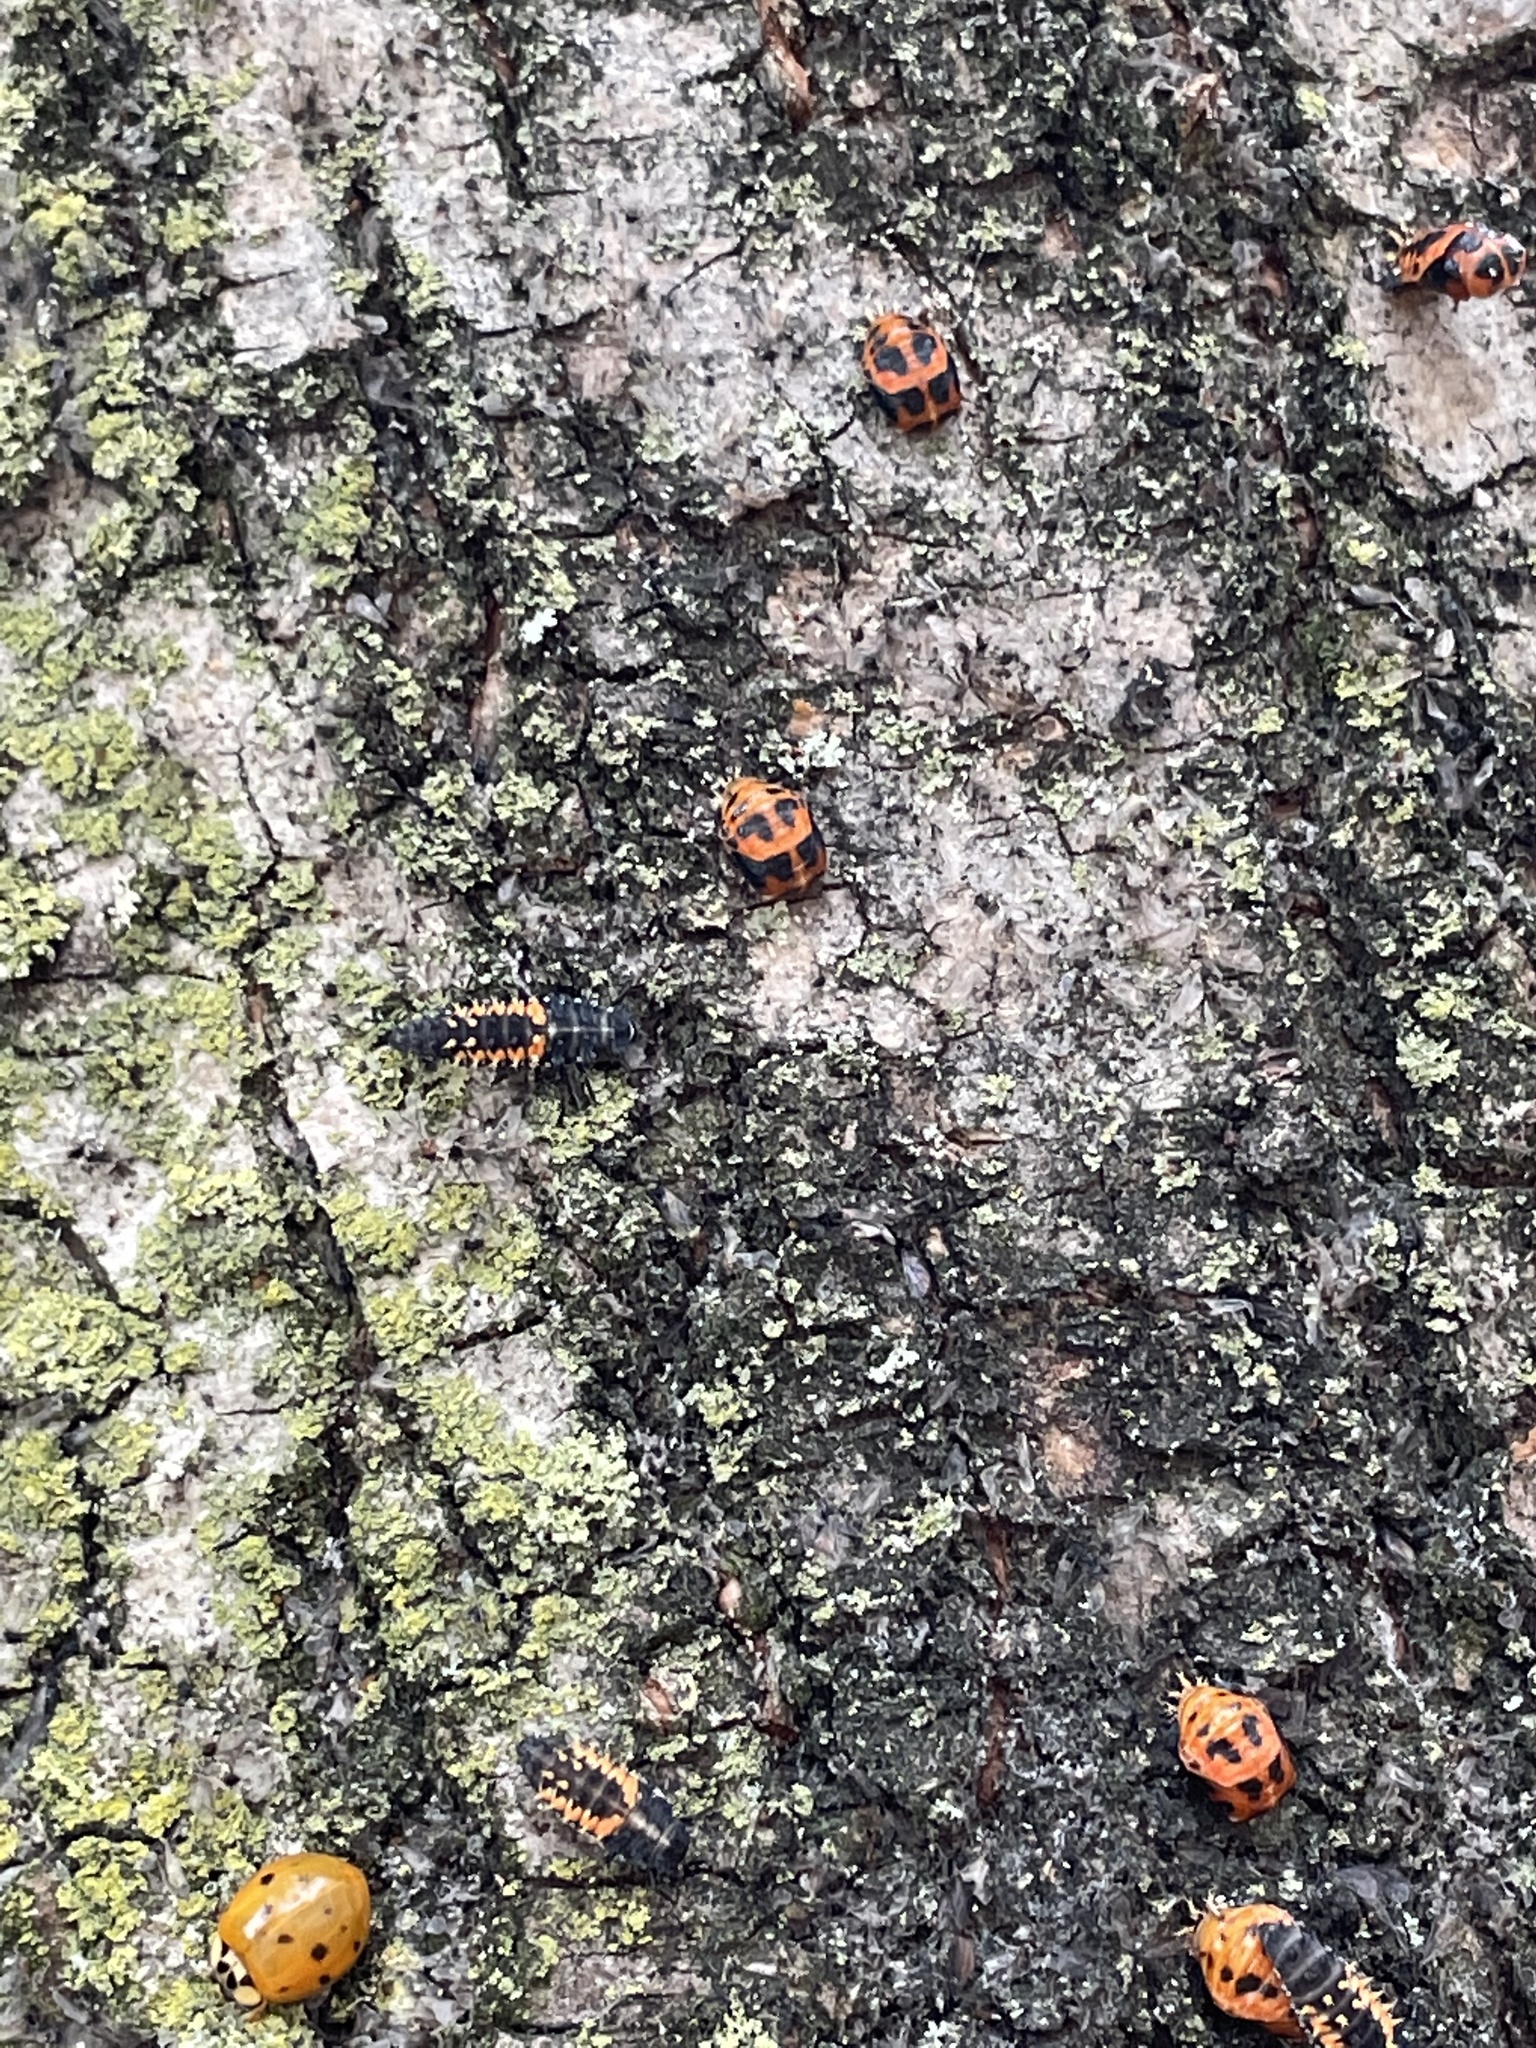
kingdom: Animalia
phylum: Arthropoda
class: Insecta
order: Coleoptera
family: Coccinellidae
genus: Harmonia
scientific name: Harmonia axyridis
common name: Harlequin ladybird
